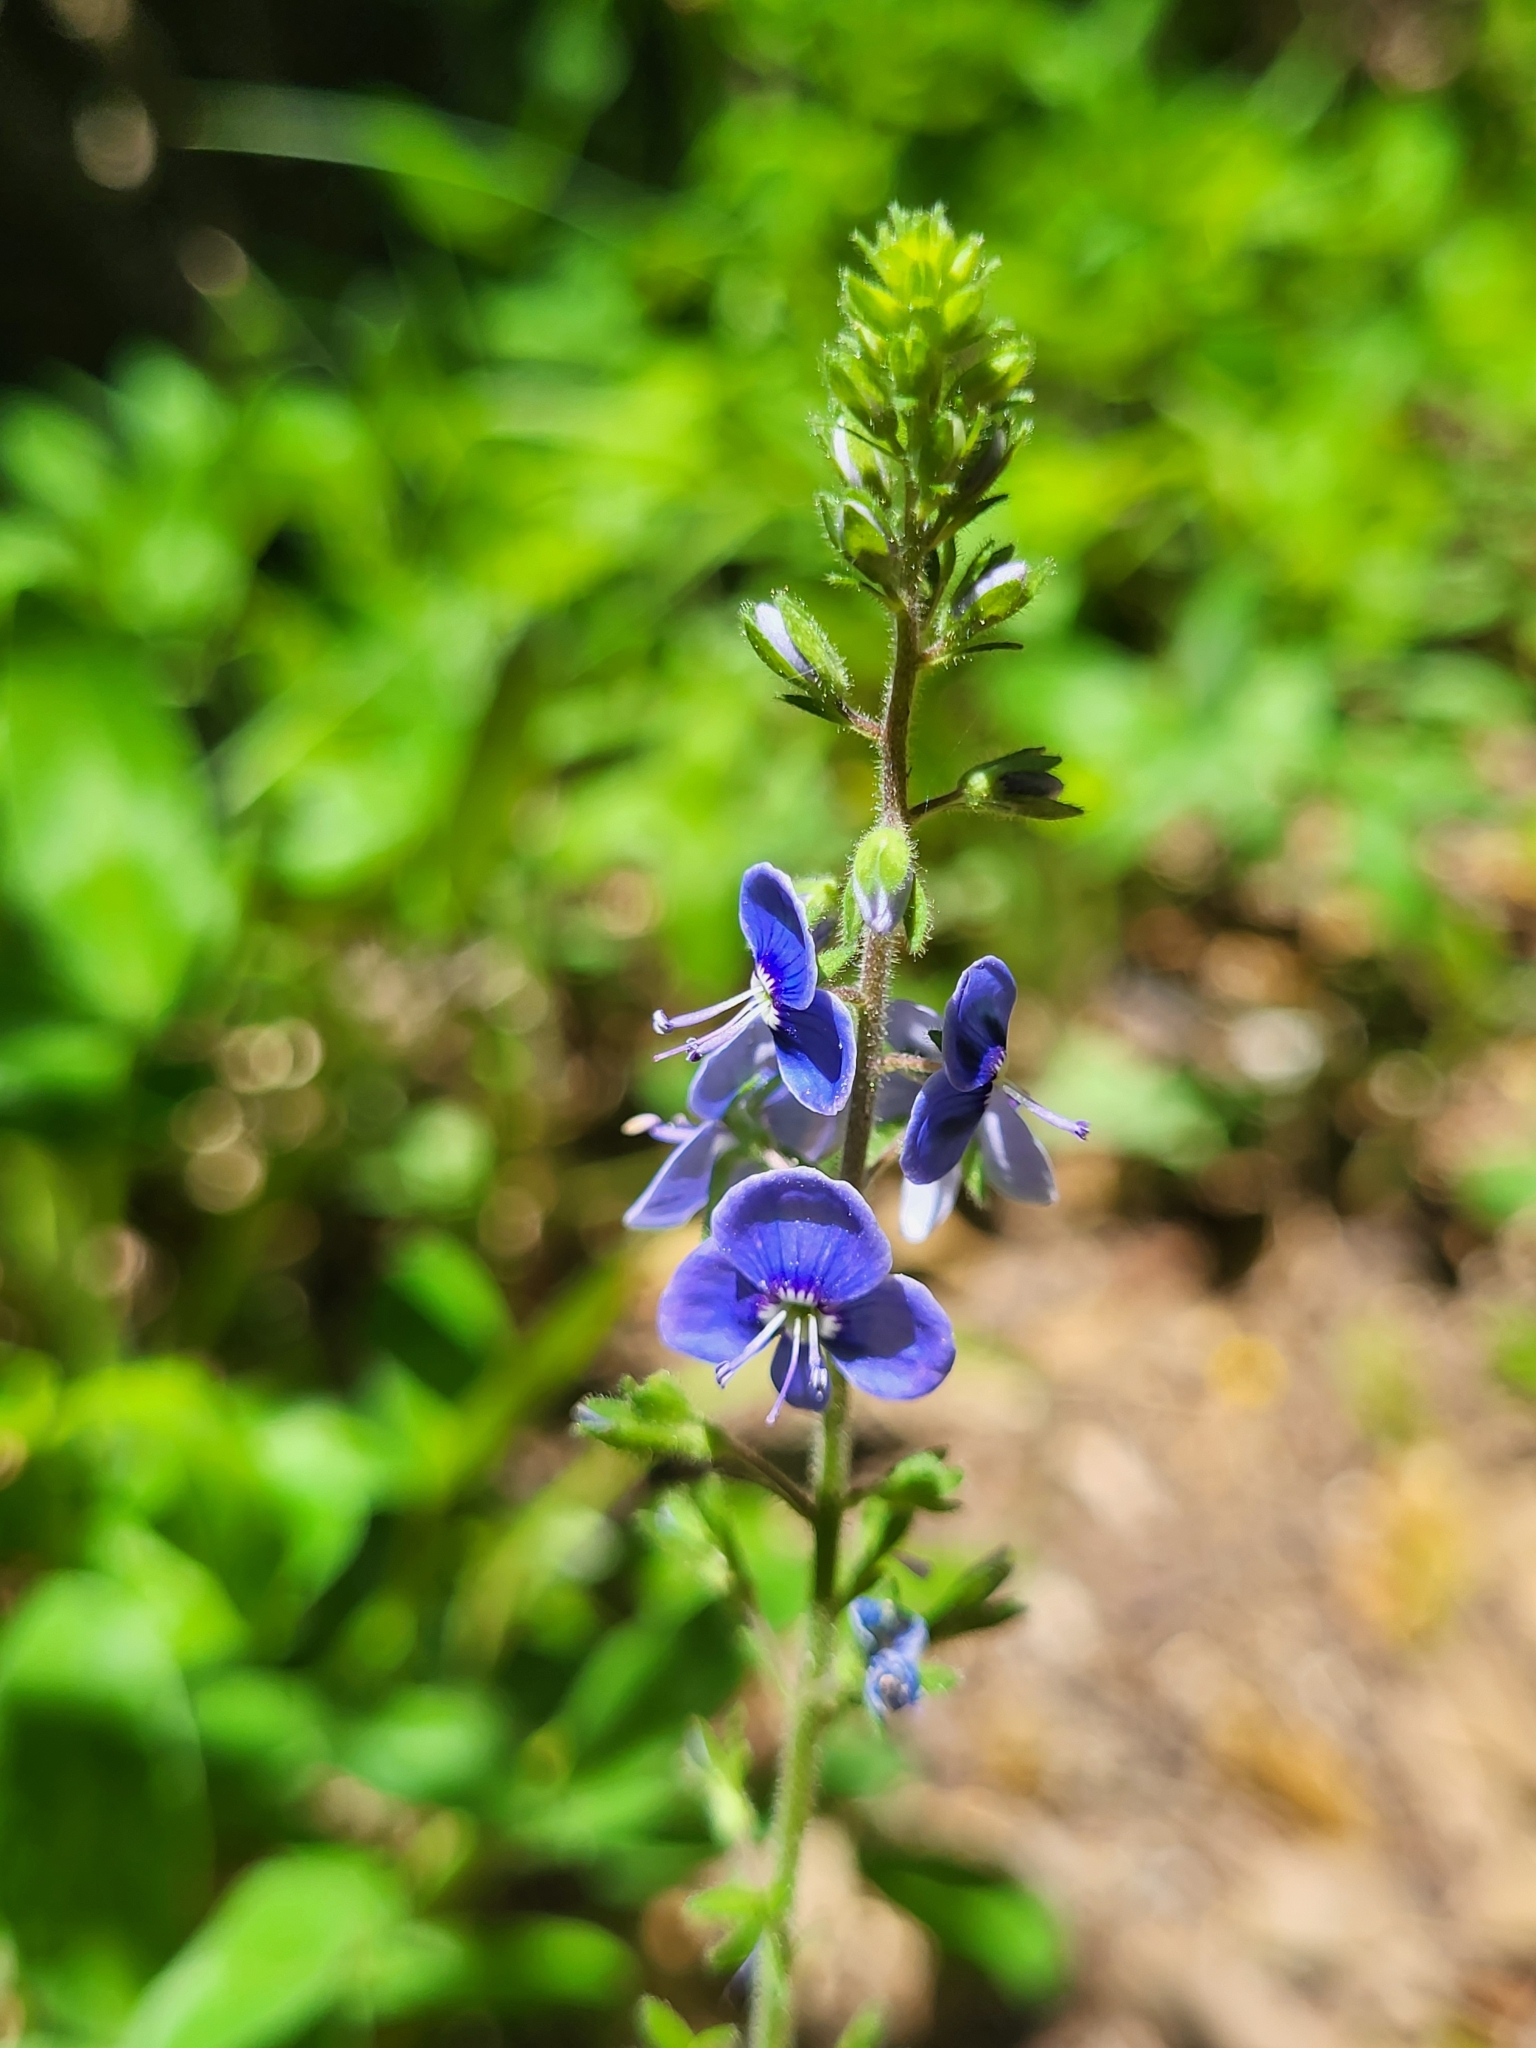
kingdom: Plantae
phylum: Tracheophyta
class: Magnoliopsida
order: Lamiales
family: Plantaginaceae
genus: Veronica
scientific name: Veronica chamaedrys
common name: Germander speedwell
